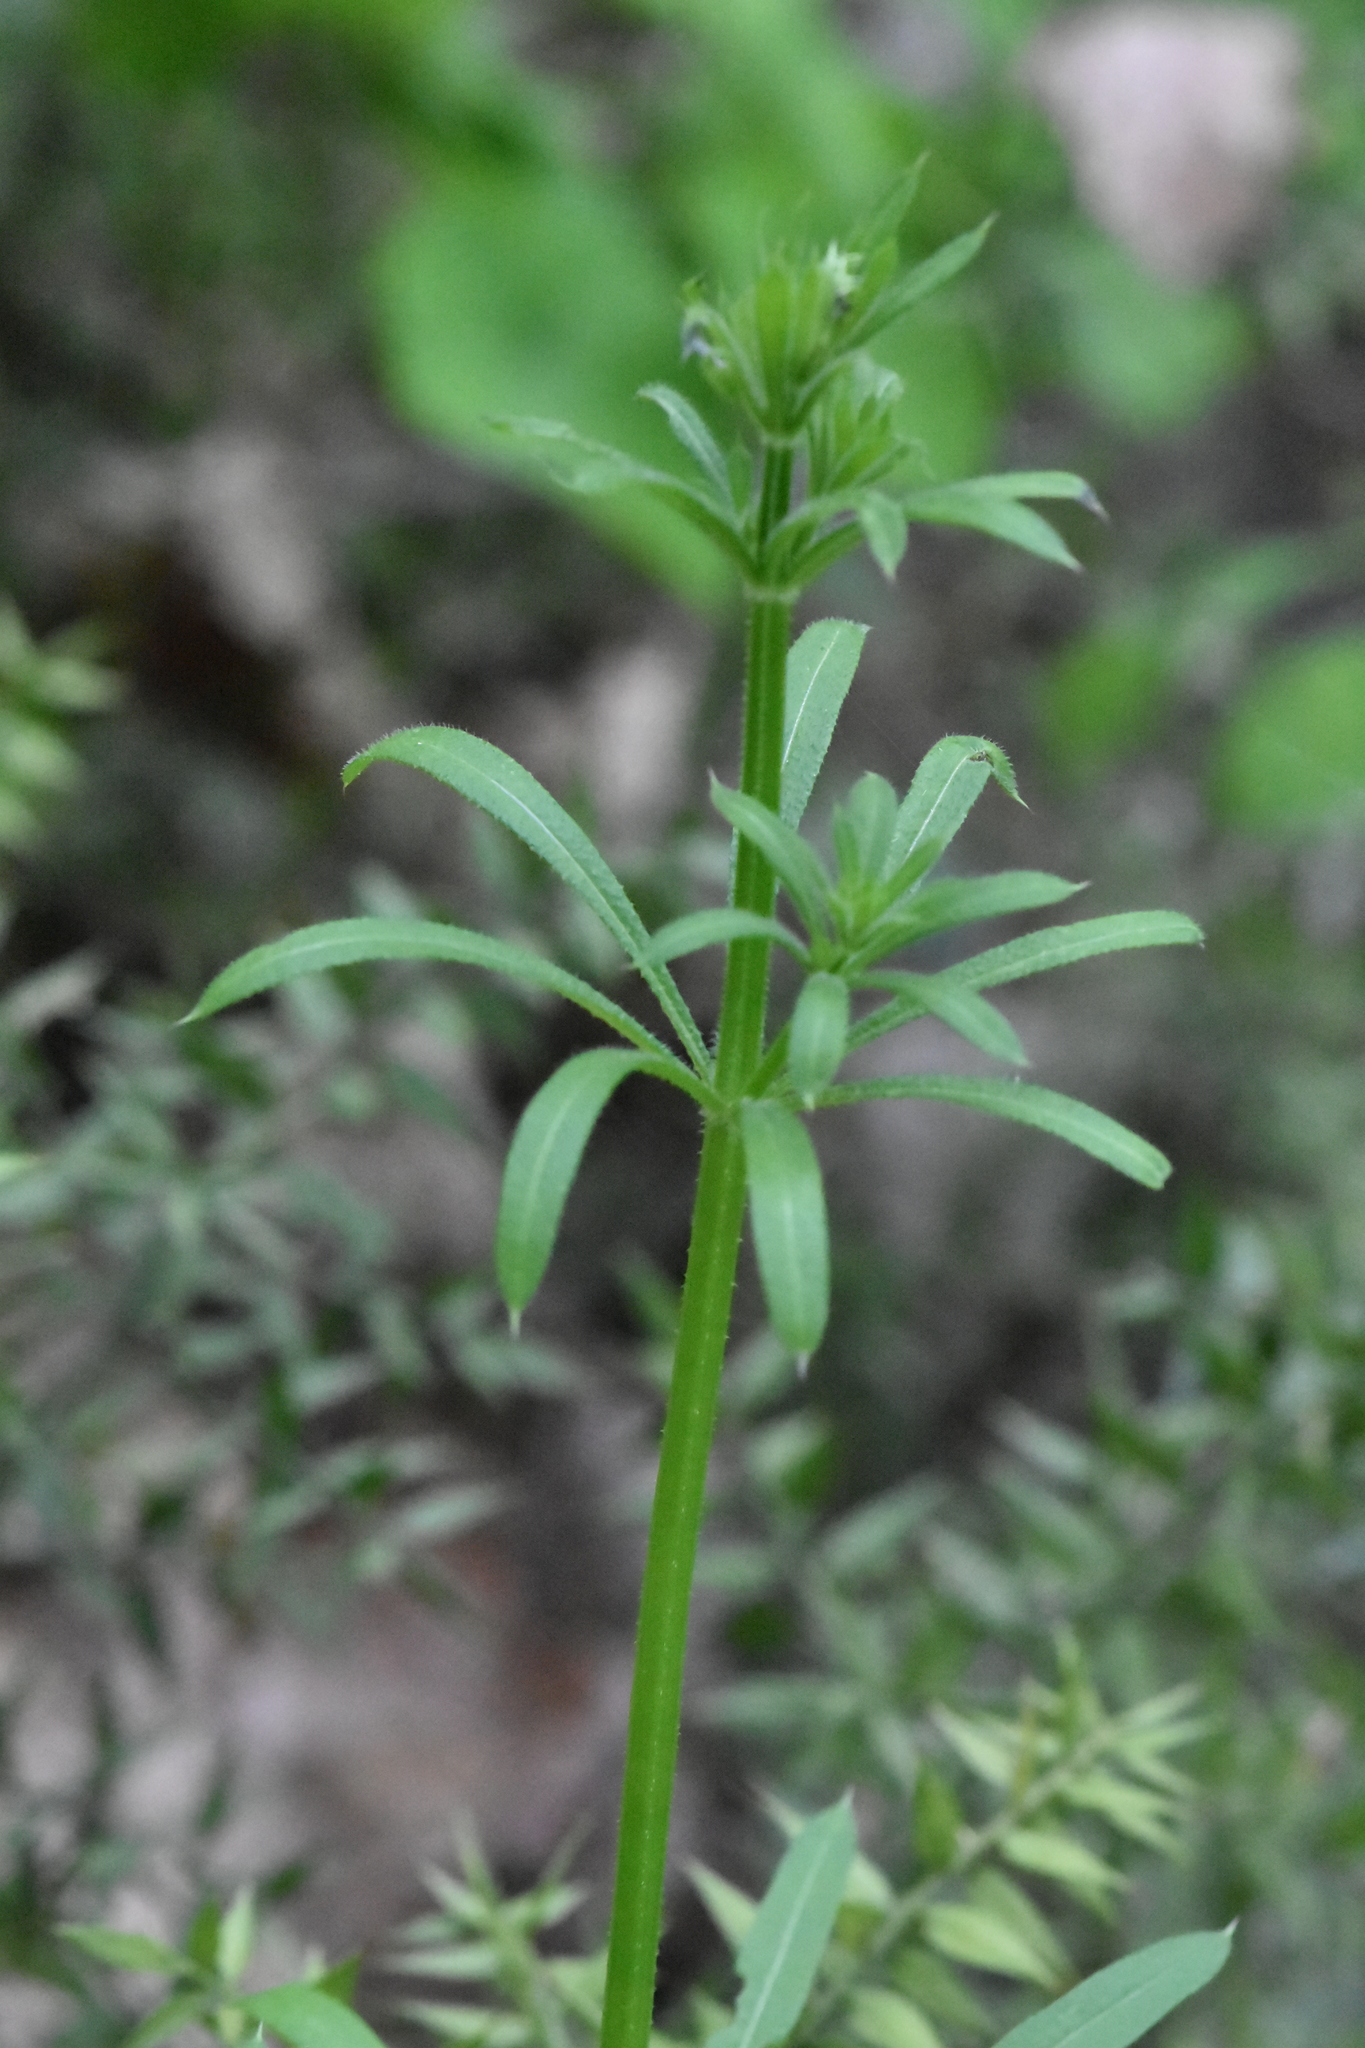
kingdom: Plantae
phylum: Tracheophyta
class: Magnoliopsida
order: Gentianales
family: Rubiaceae
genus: Galium
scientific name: Galium
